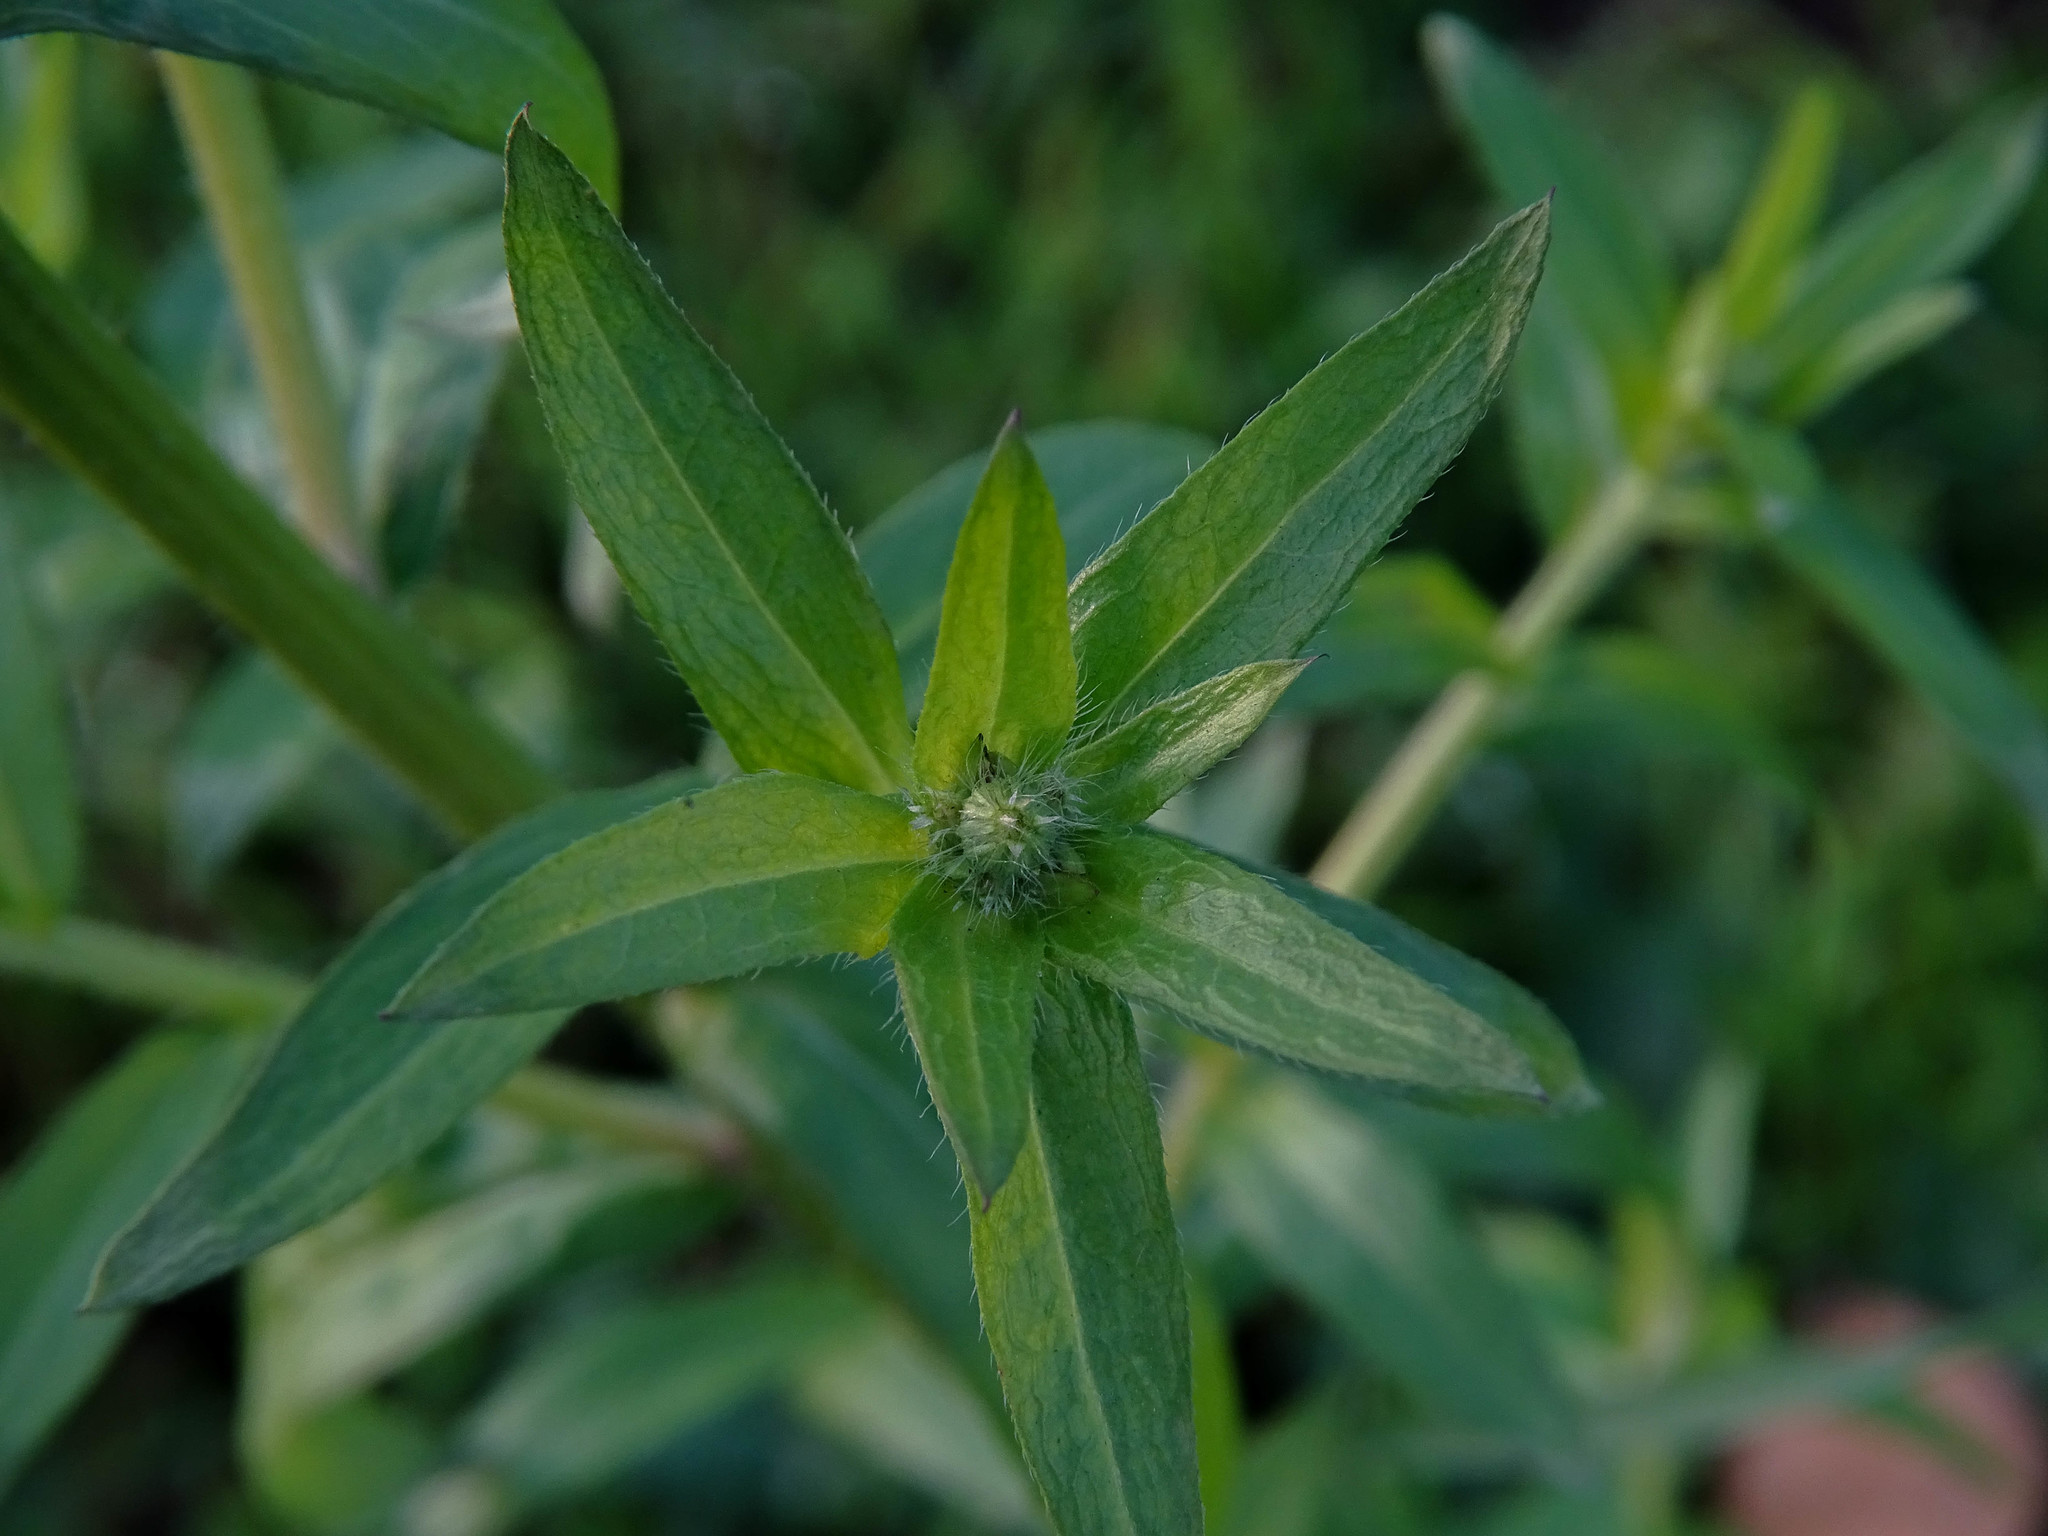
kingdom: Plantae
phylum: Tracheophyta
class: Magnoliopsida
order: Asterales
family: Asteraceae
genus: Erigeron
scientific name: Erigeron annuus
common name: Tall fleabane
